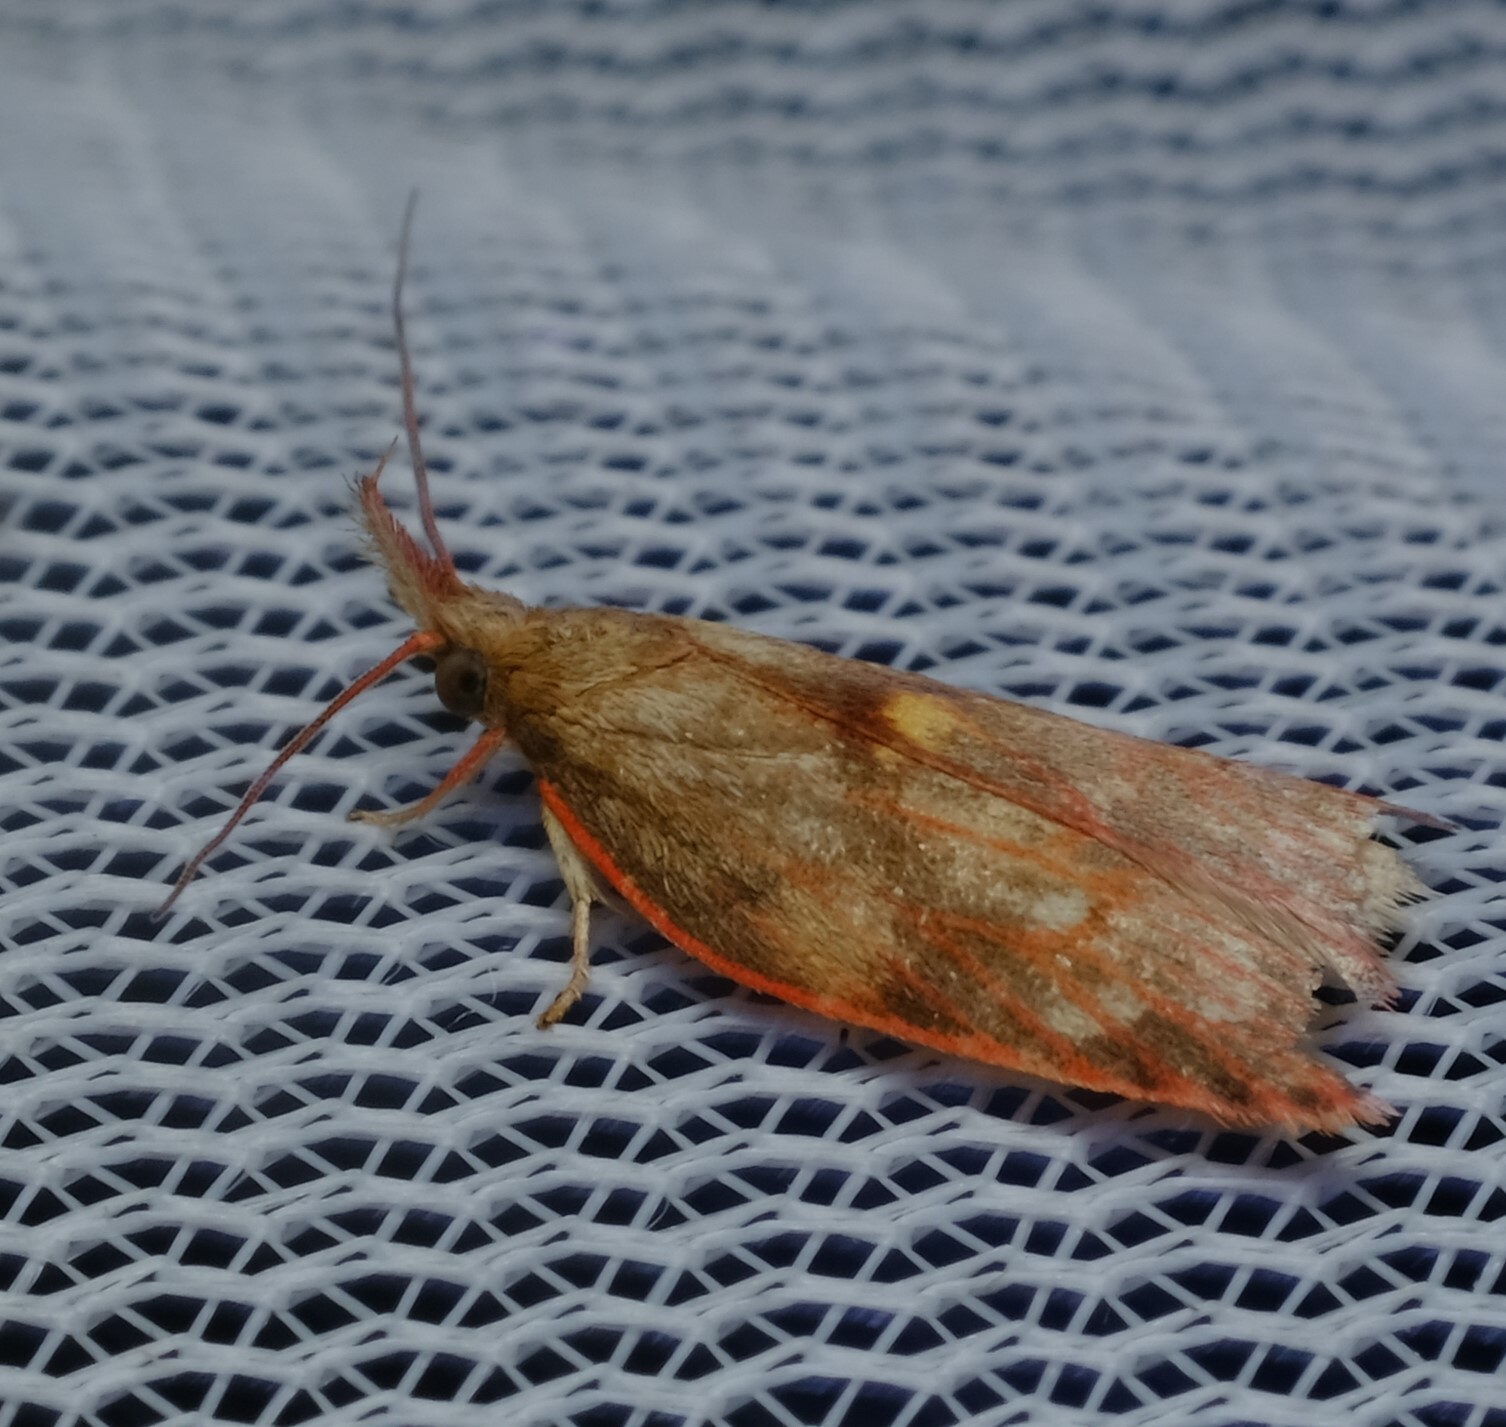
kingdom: Animalia
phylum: Arthropoda
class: Insecta
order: Lepidoptera
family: Depressariidae
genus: Enchocrates
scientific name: Enchocrates glaucopis
